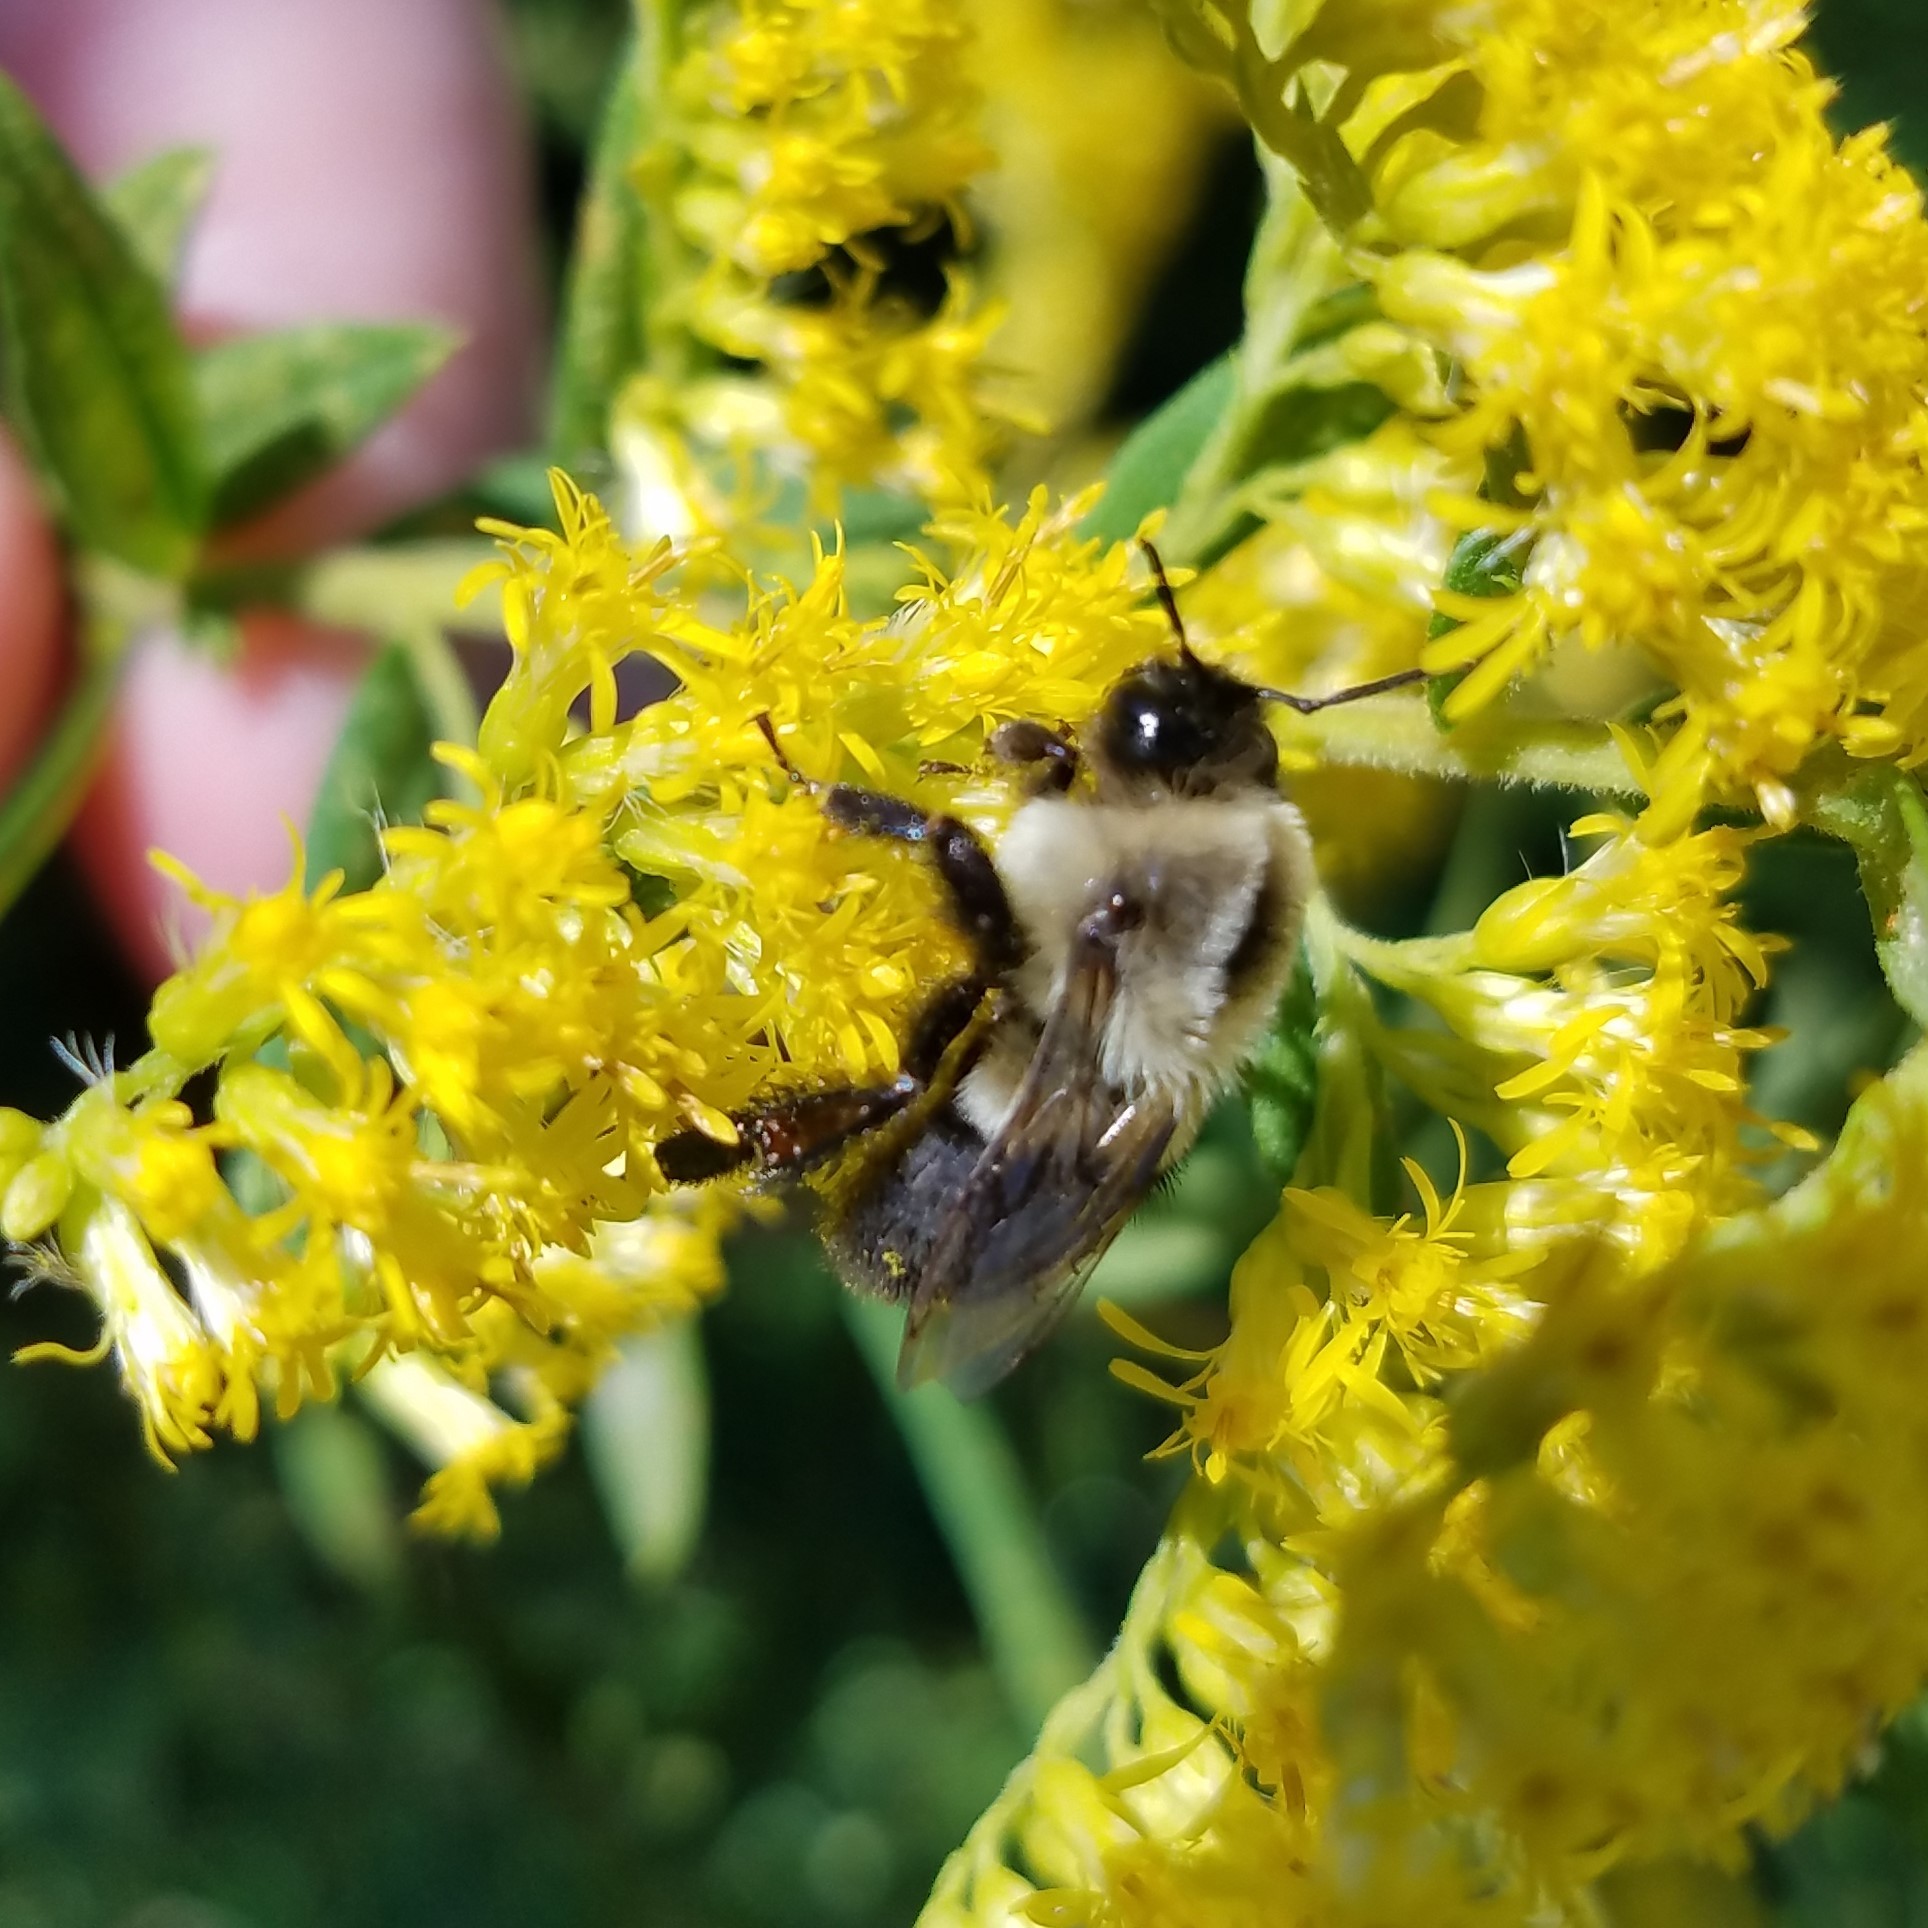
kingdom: Animalia
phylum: Arthropoda
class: Insecta
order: Hymenoptera
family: Apidae
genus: Bombus
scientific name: Bombus impatiens
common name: Common eastern bumble bee
